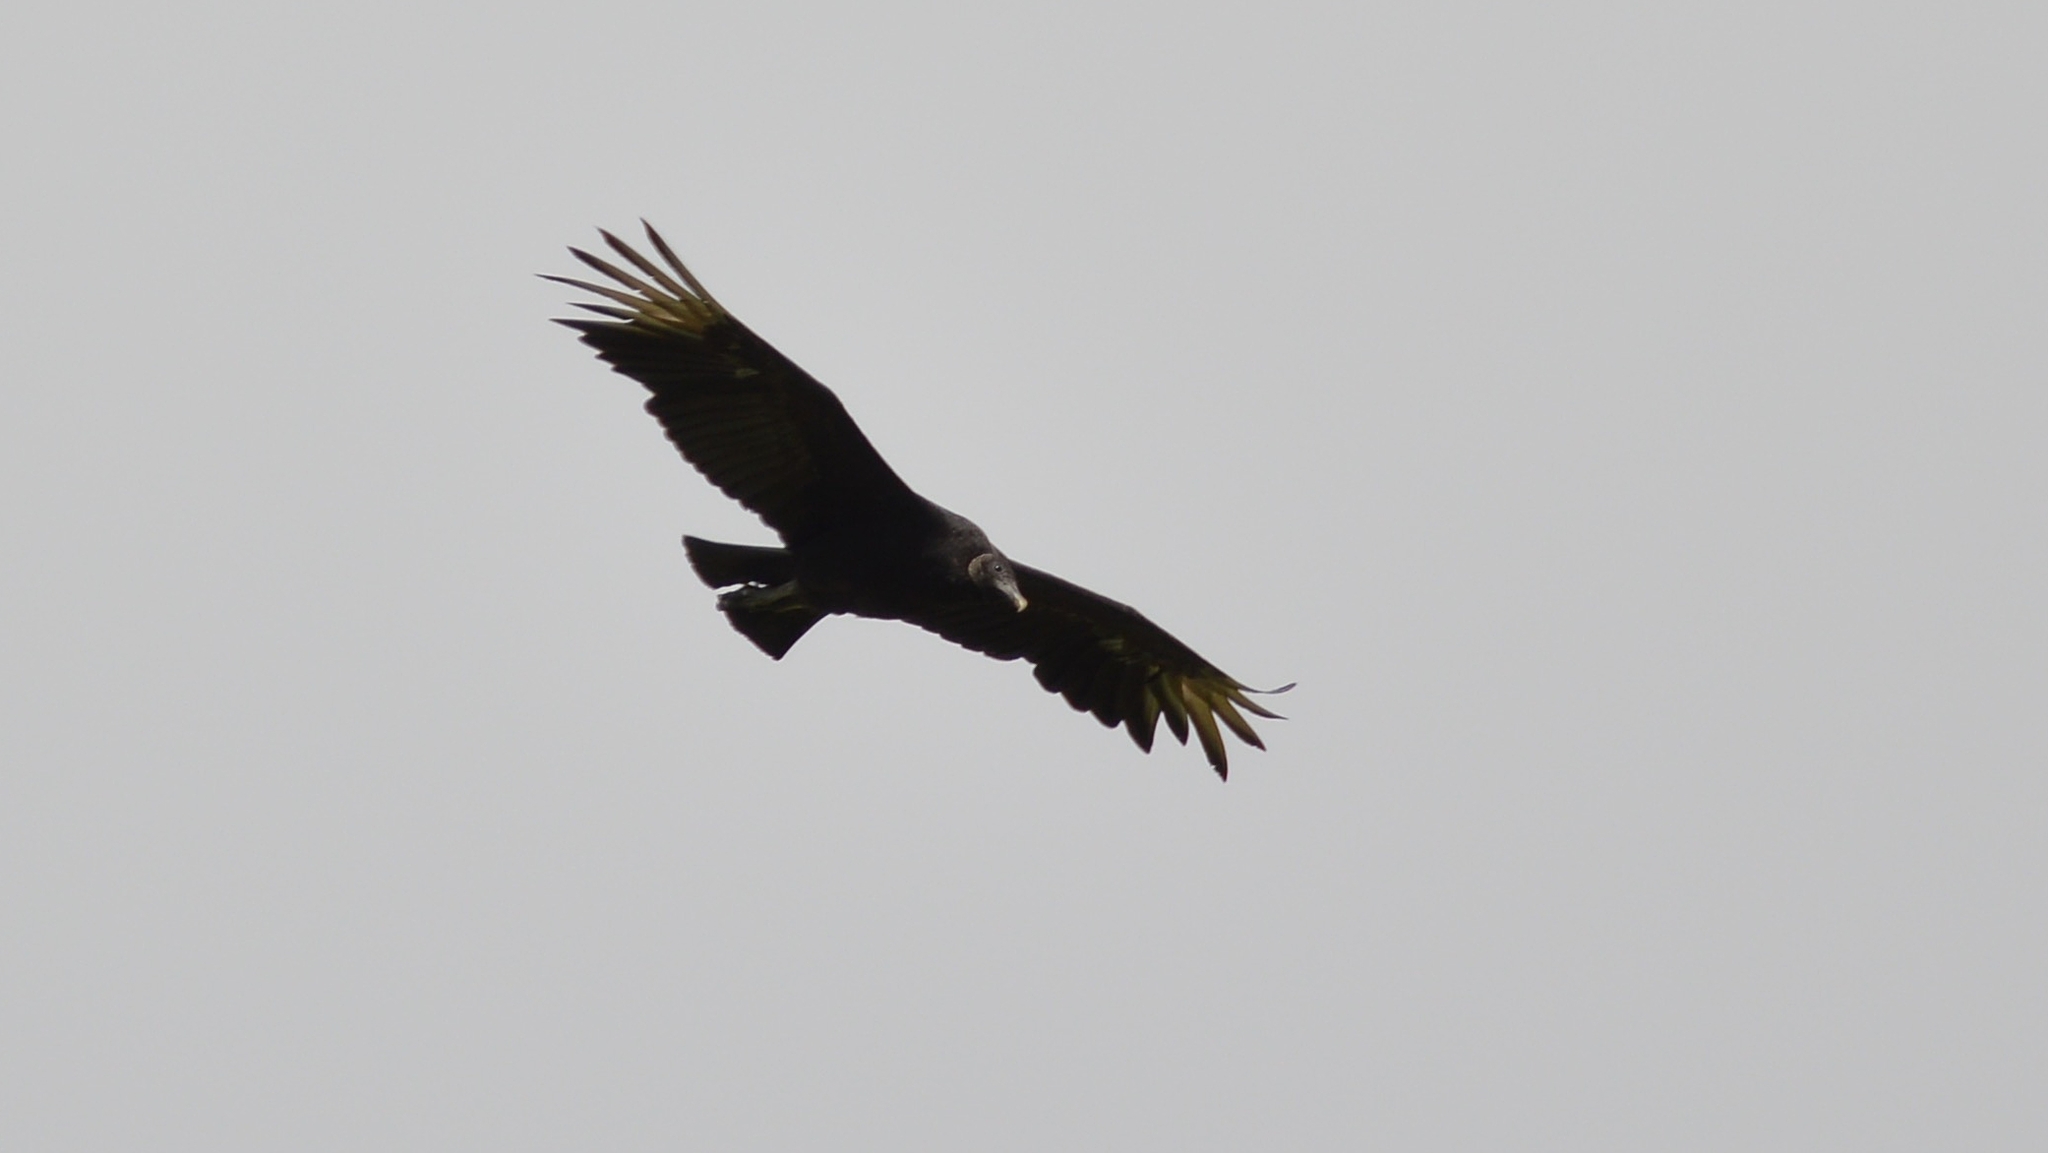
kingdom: Animalia
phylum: Chordata
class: Aves
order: Accipitriformes
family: Cathartidae
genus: Coragyps
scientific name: Coragyps atratus
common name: Black vulture
